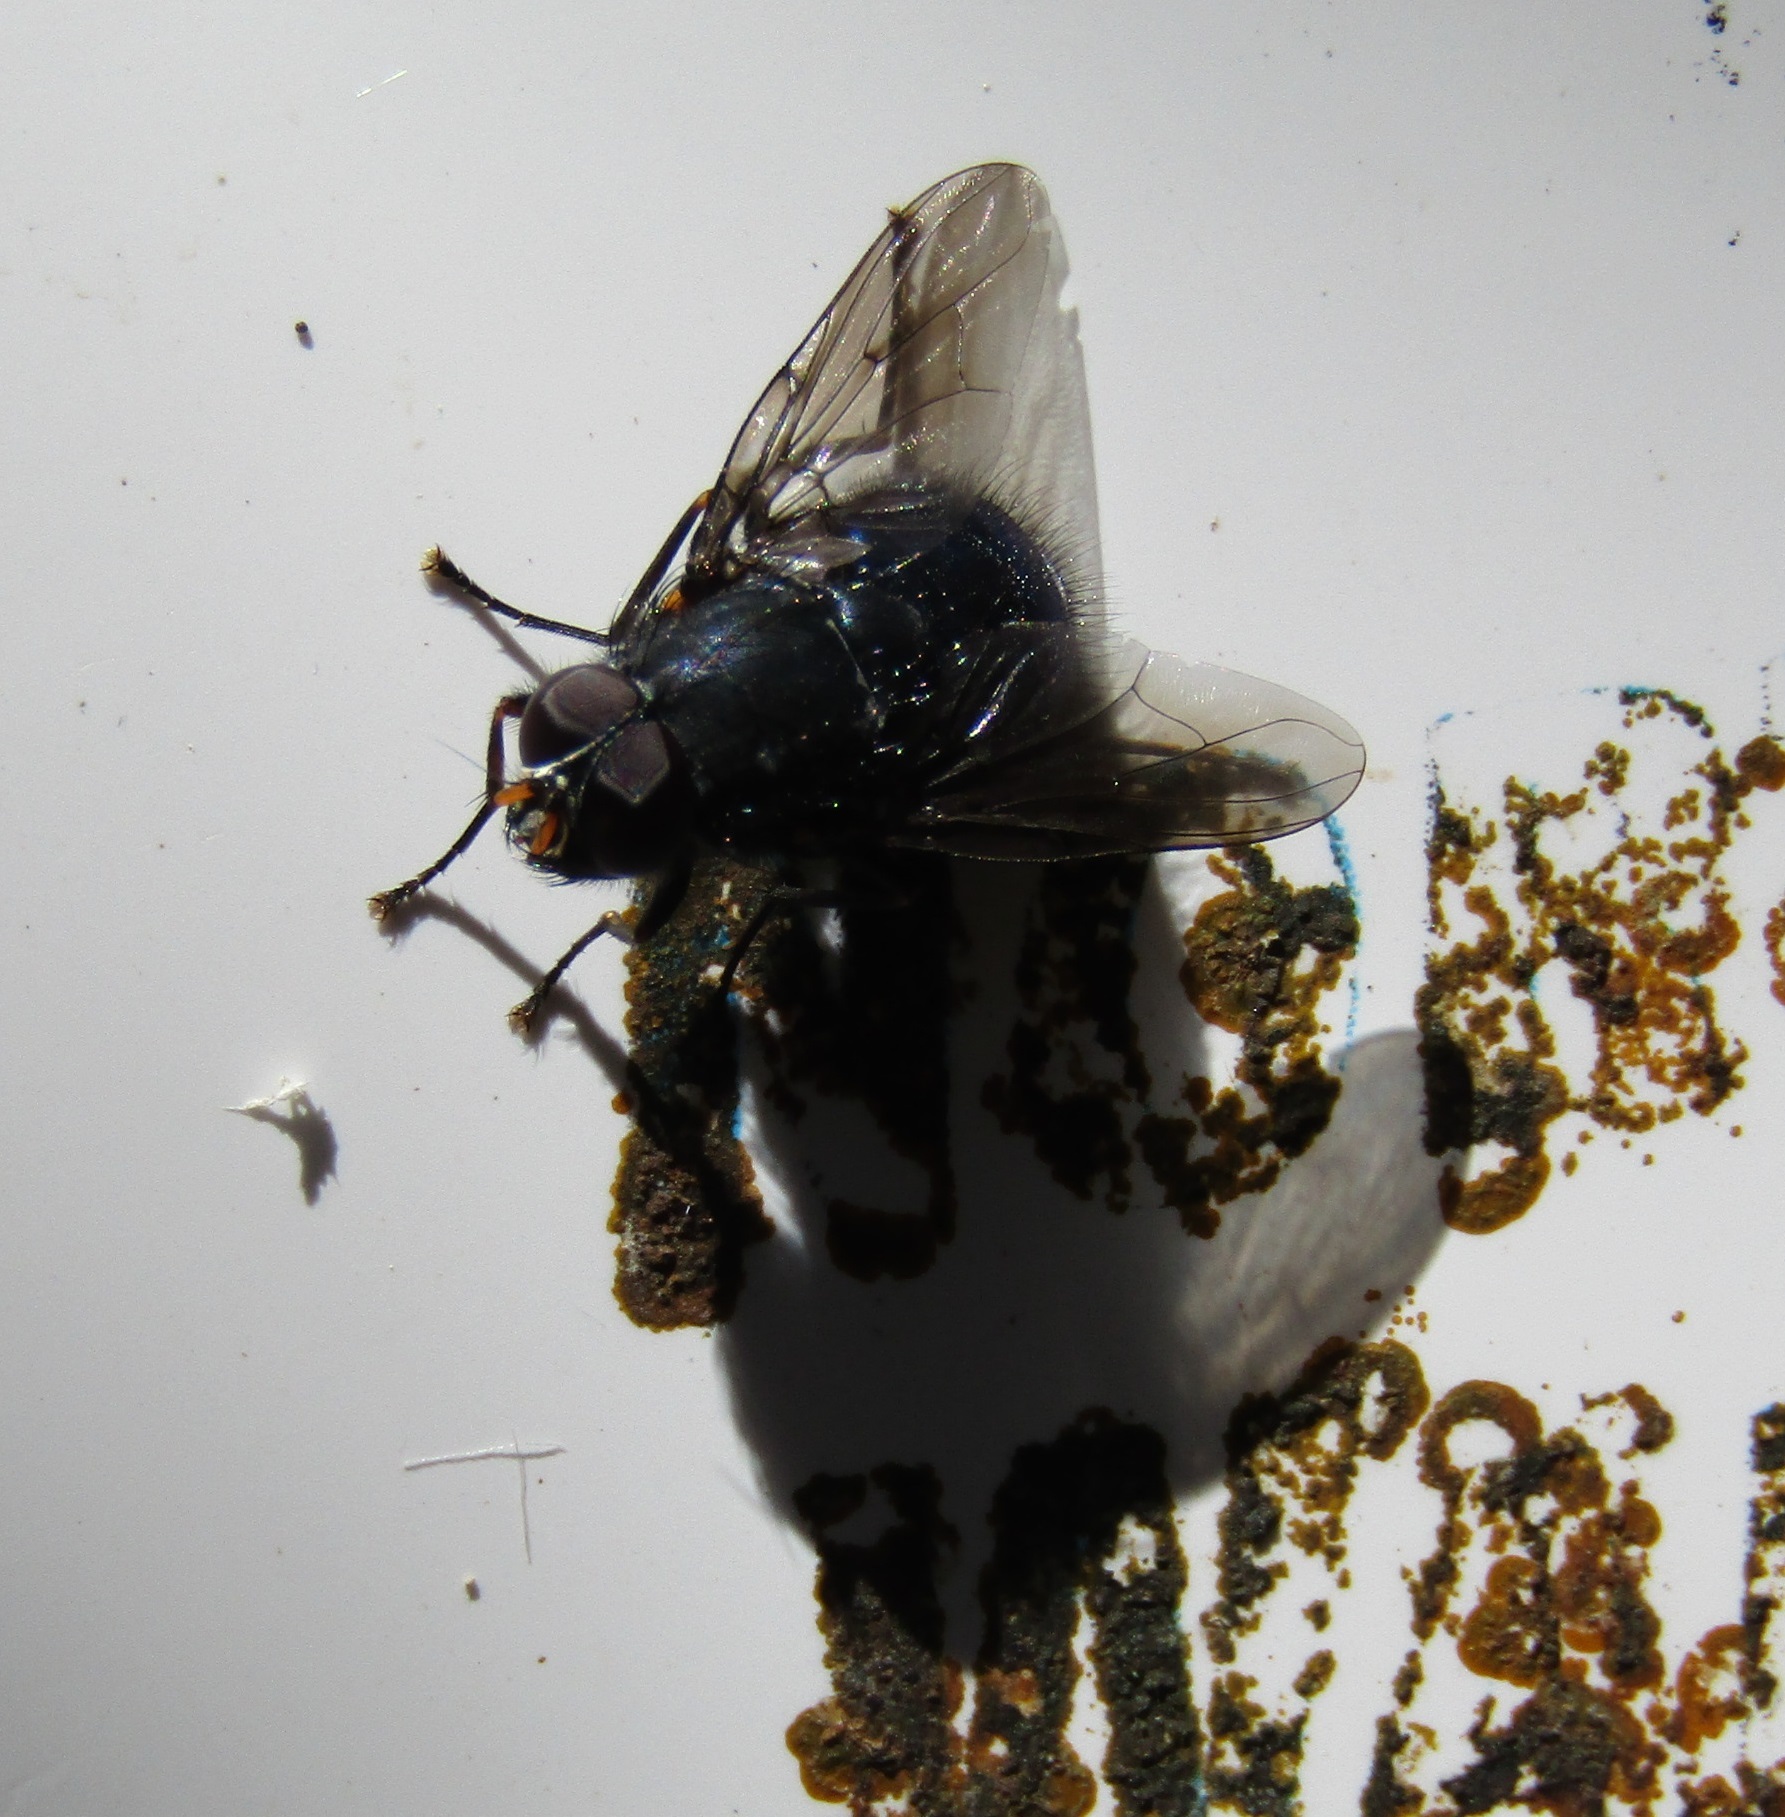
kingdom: Animalia
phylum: Arthropoda
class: Insecta
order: Diptera
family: Muscidae
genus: Calliphoroides
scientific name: Calliphoroides antennatis
